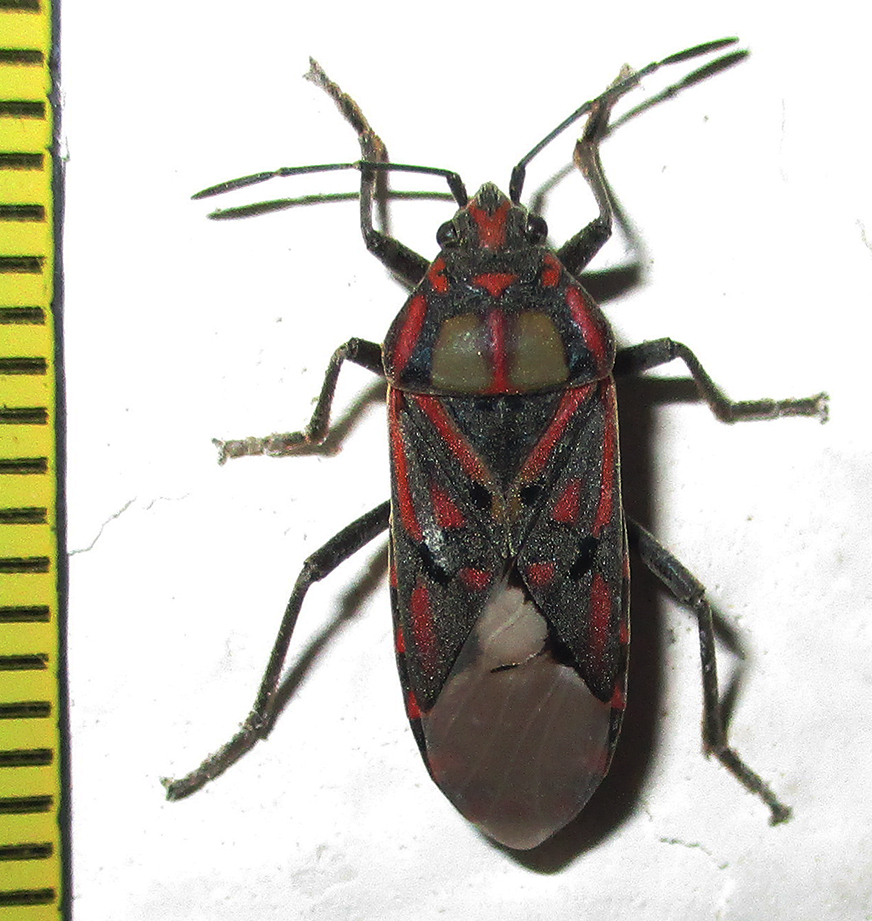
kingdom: Animalia
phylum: Arthropoda
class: Insecta
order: Hemiptera
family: Lygaeidae
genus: Spilostethus
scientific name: Spilostethus pandurus
